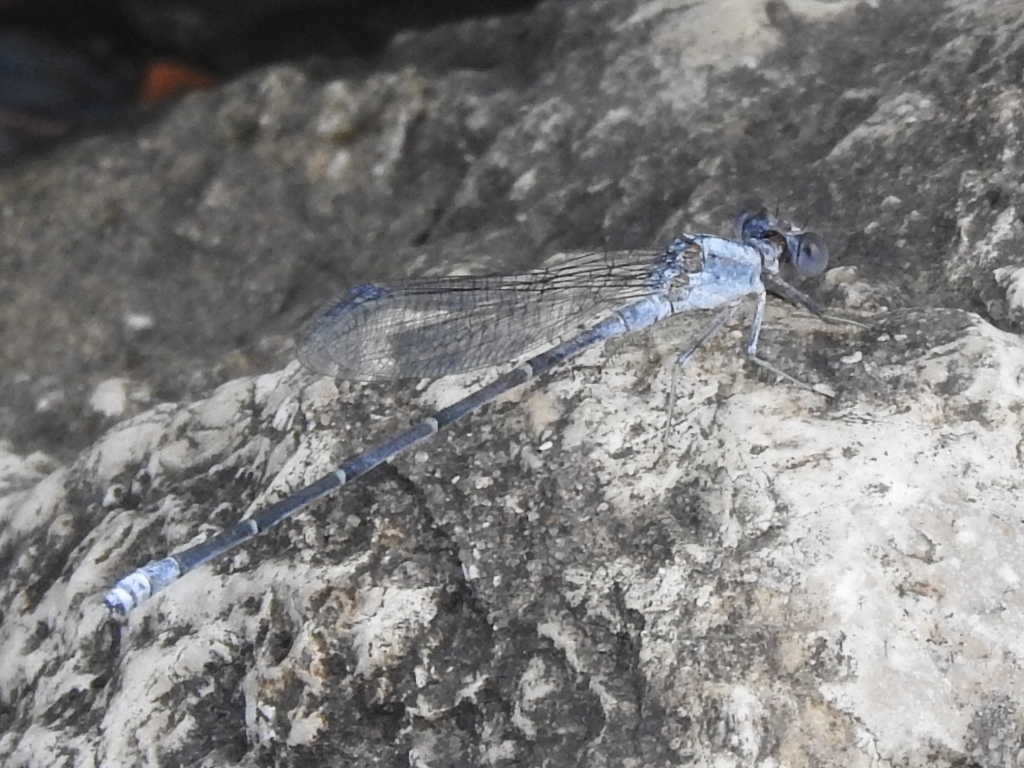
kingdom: Animalia
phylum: Arthropoda
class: Insecta
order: Odonata
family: Coenagrionidae
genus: Argia
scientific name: Argia moesta
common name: Powdered dancer
